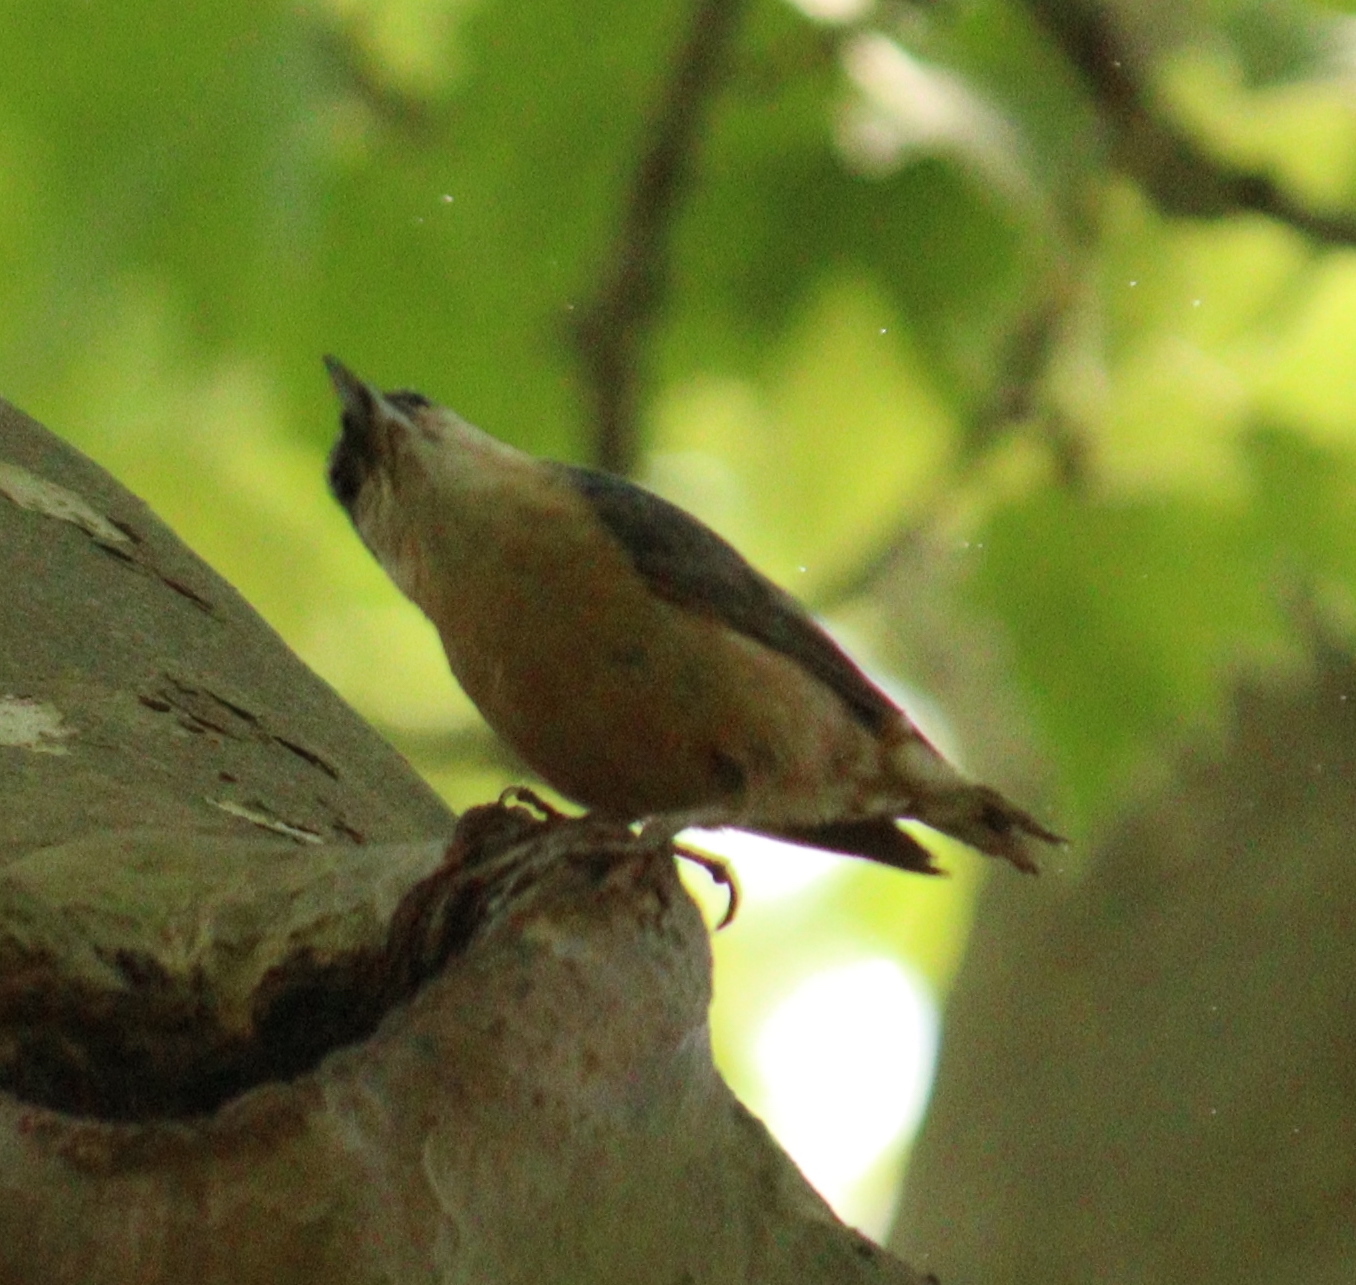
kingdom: Animalia
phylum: Chordata
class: Aves
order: Passeriformes
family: Sittidae
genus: Sitta
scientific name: Sitta europaea
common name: Eurasian nuthatch
